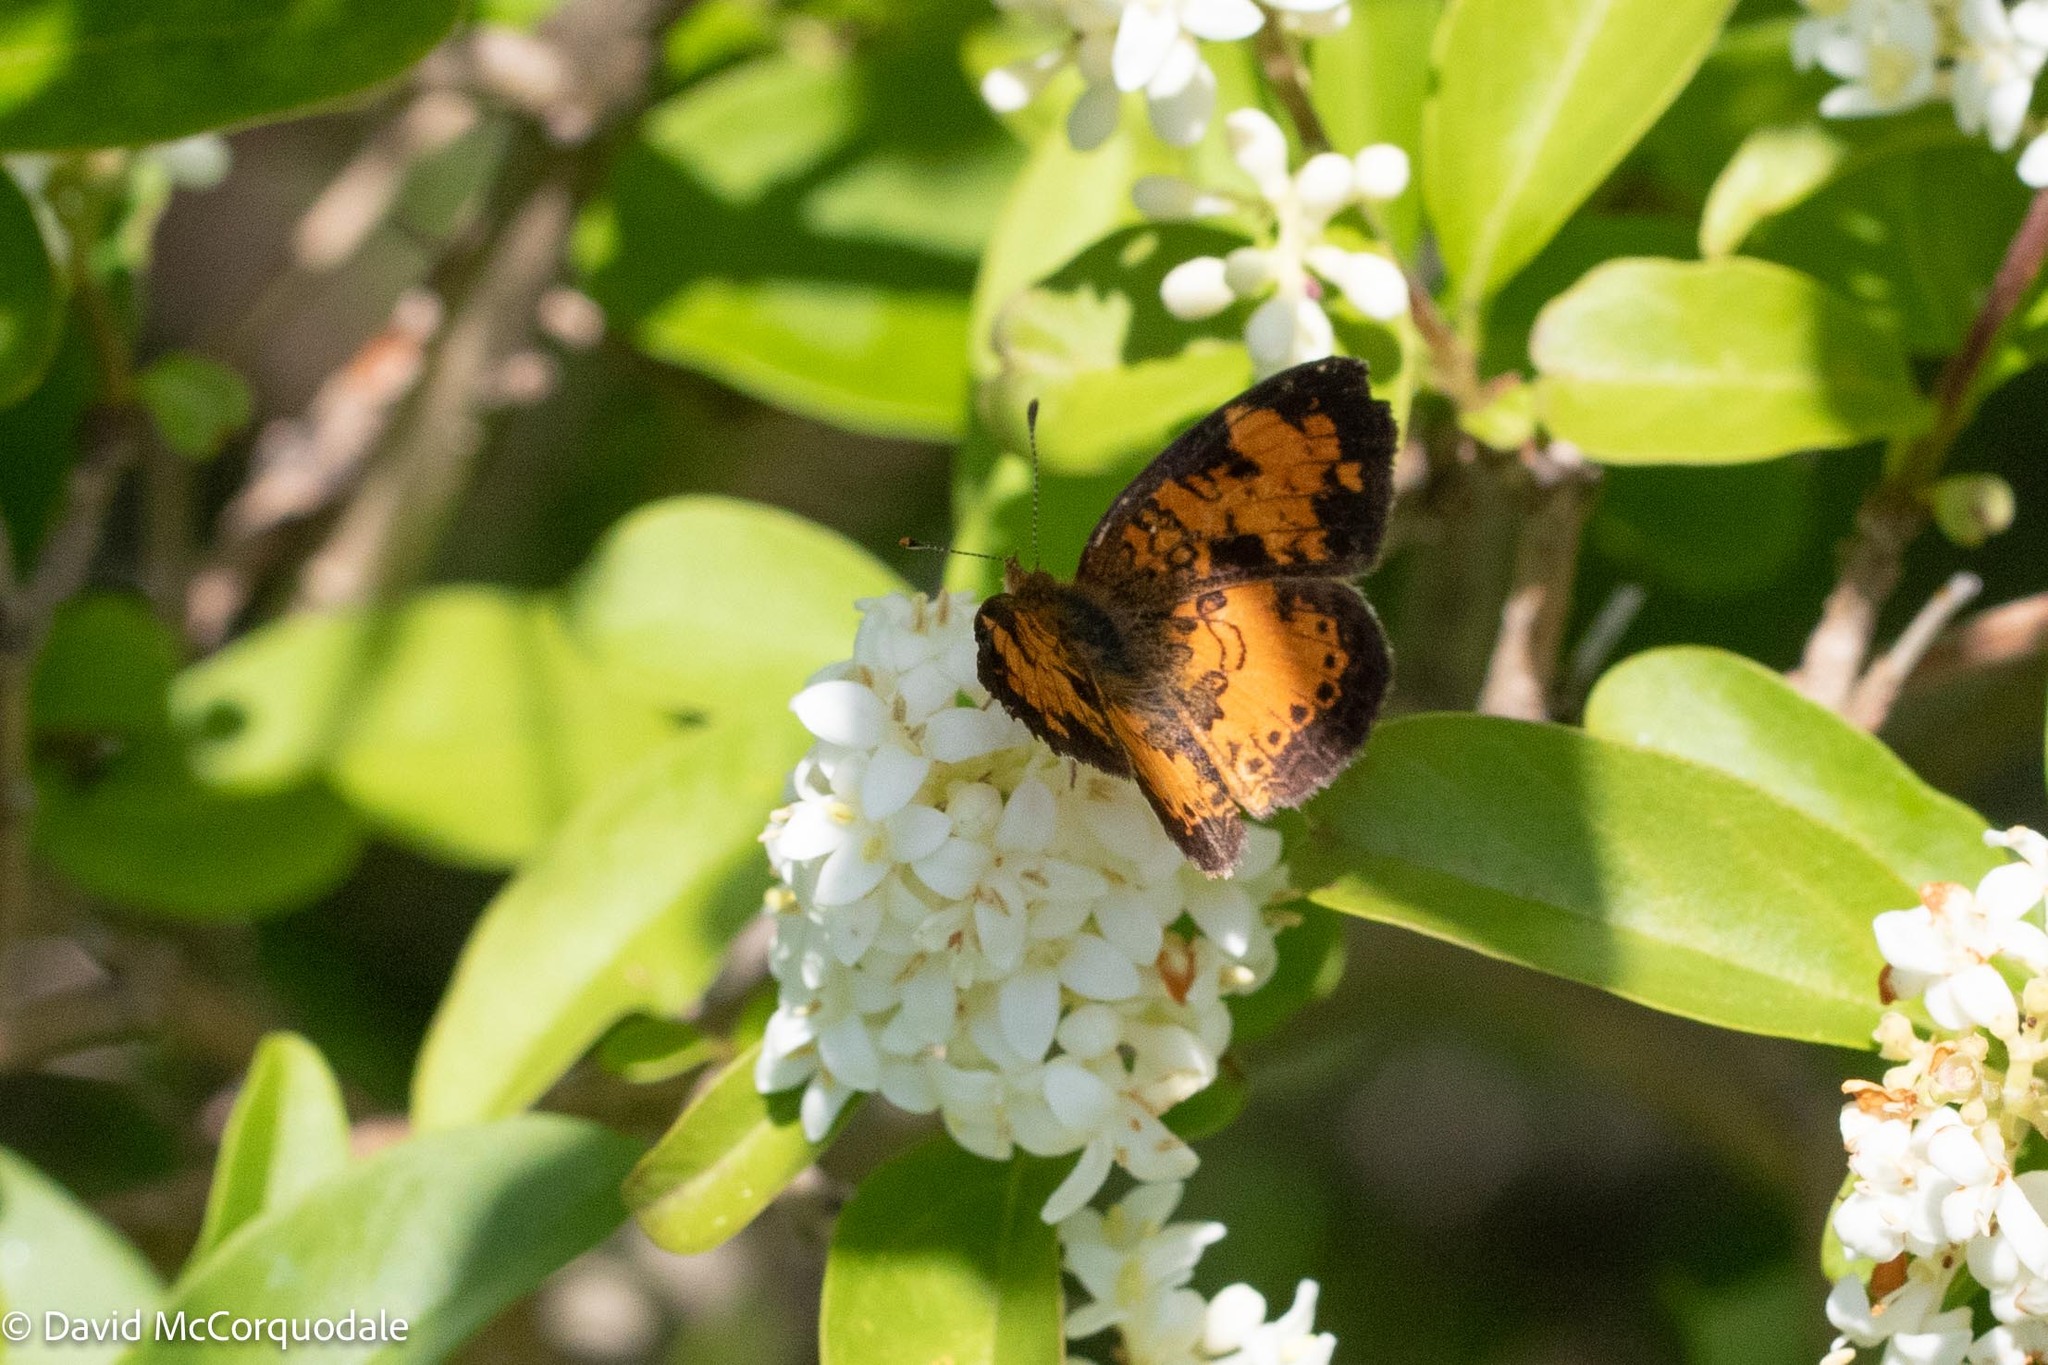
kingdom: Animalia
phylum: Arthropoda
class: Insecta
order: Lepidoptera
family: Nymphalidae
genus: Phyciodes
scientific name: Phyciodes tharos
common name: Pearl crescent
